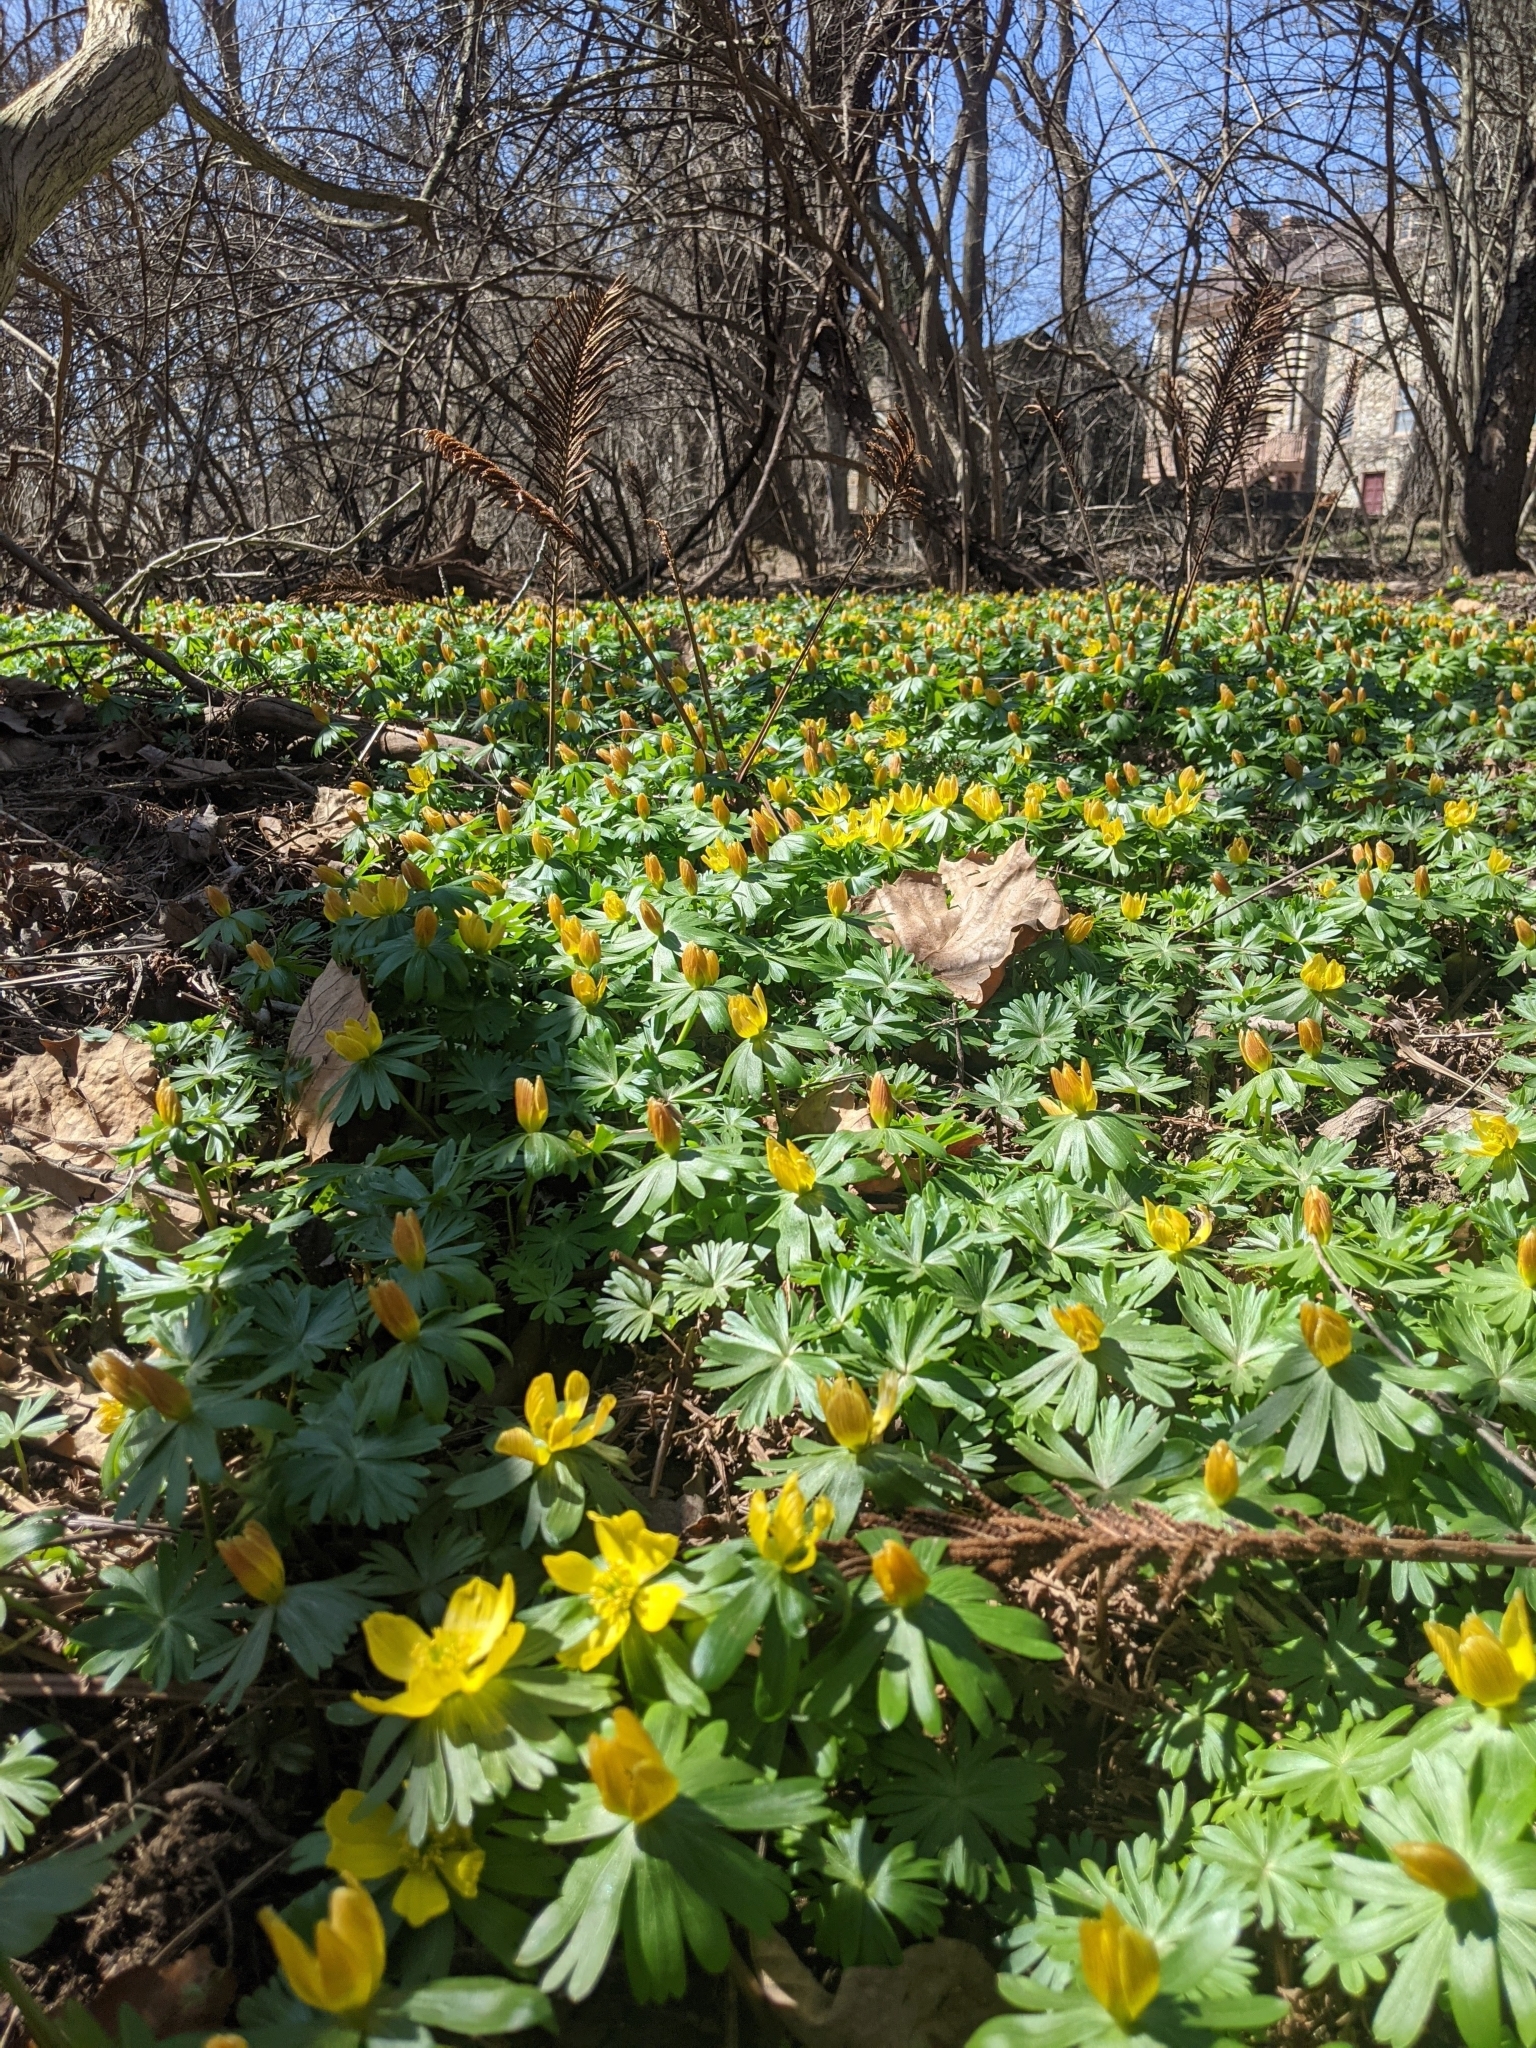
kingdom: Plantae
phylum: Tracheophyta
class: Magnoliopsida
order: Ranunculales
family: Ranunculaceae
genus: Eranthis
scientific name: Eranthis hyemalis
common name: Winter aconite
